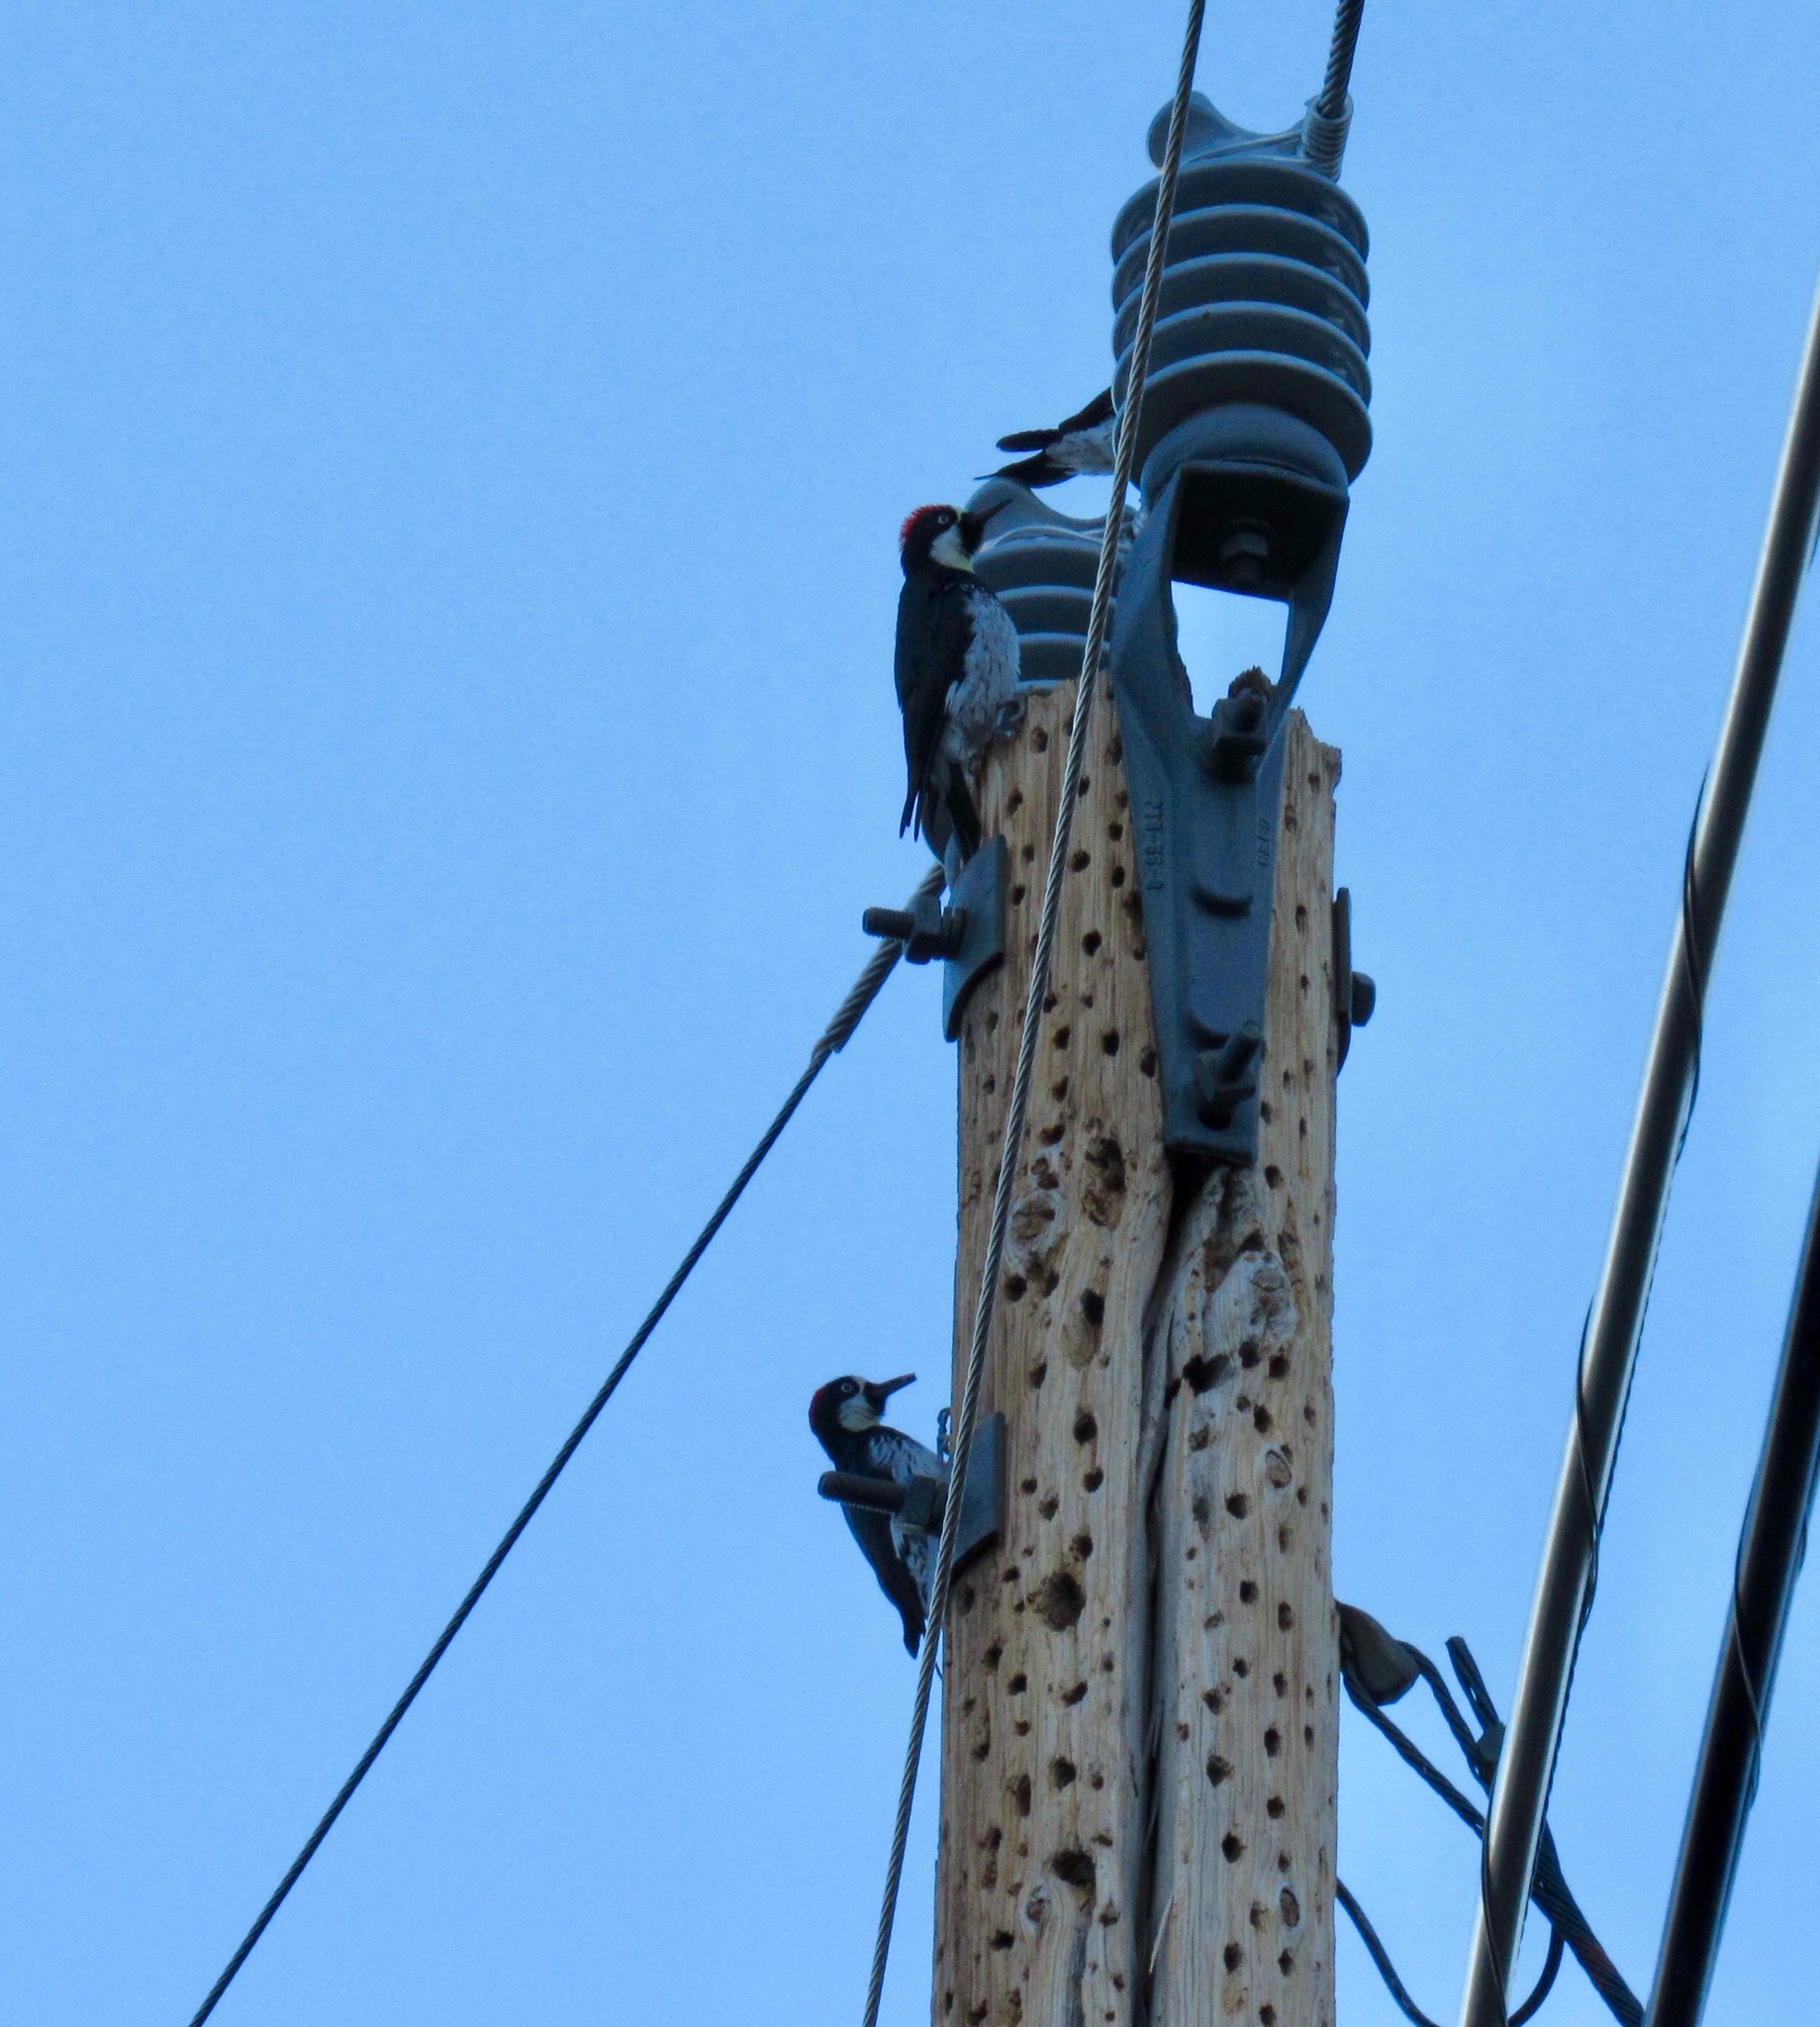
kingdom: Animalia
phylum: Chordata
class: Aves
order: Piciformes
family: Picidae
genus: Melanerpes
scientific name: Melanerpes formicivorus
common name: Acorn woodpecker
